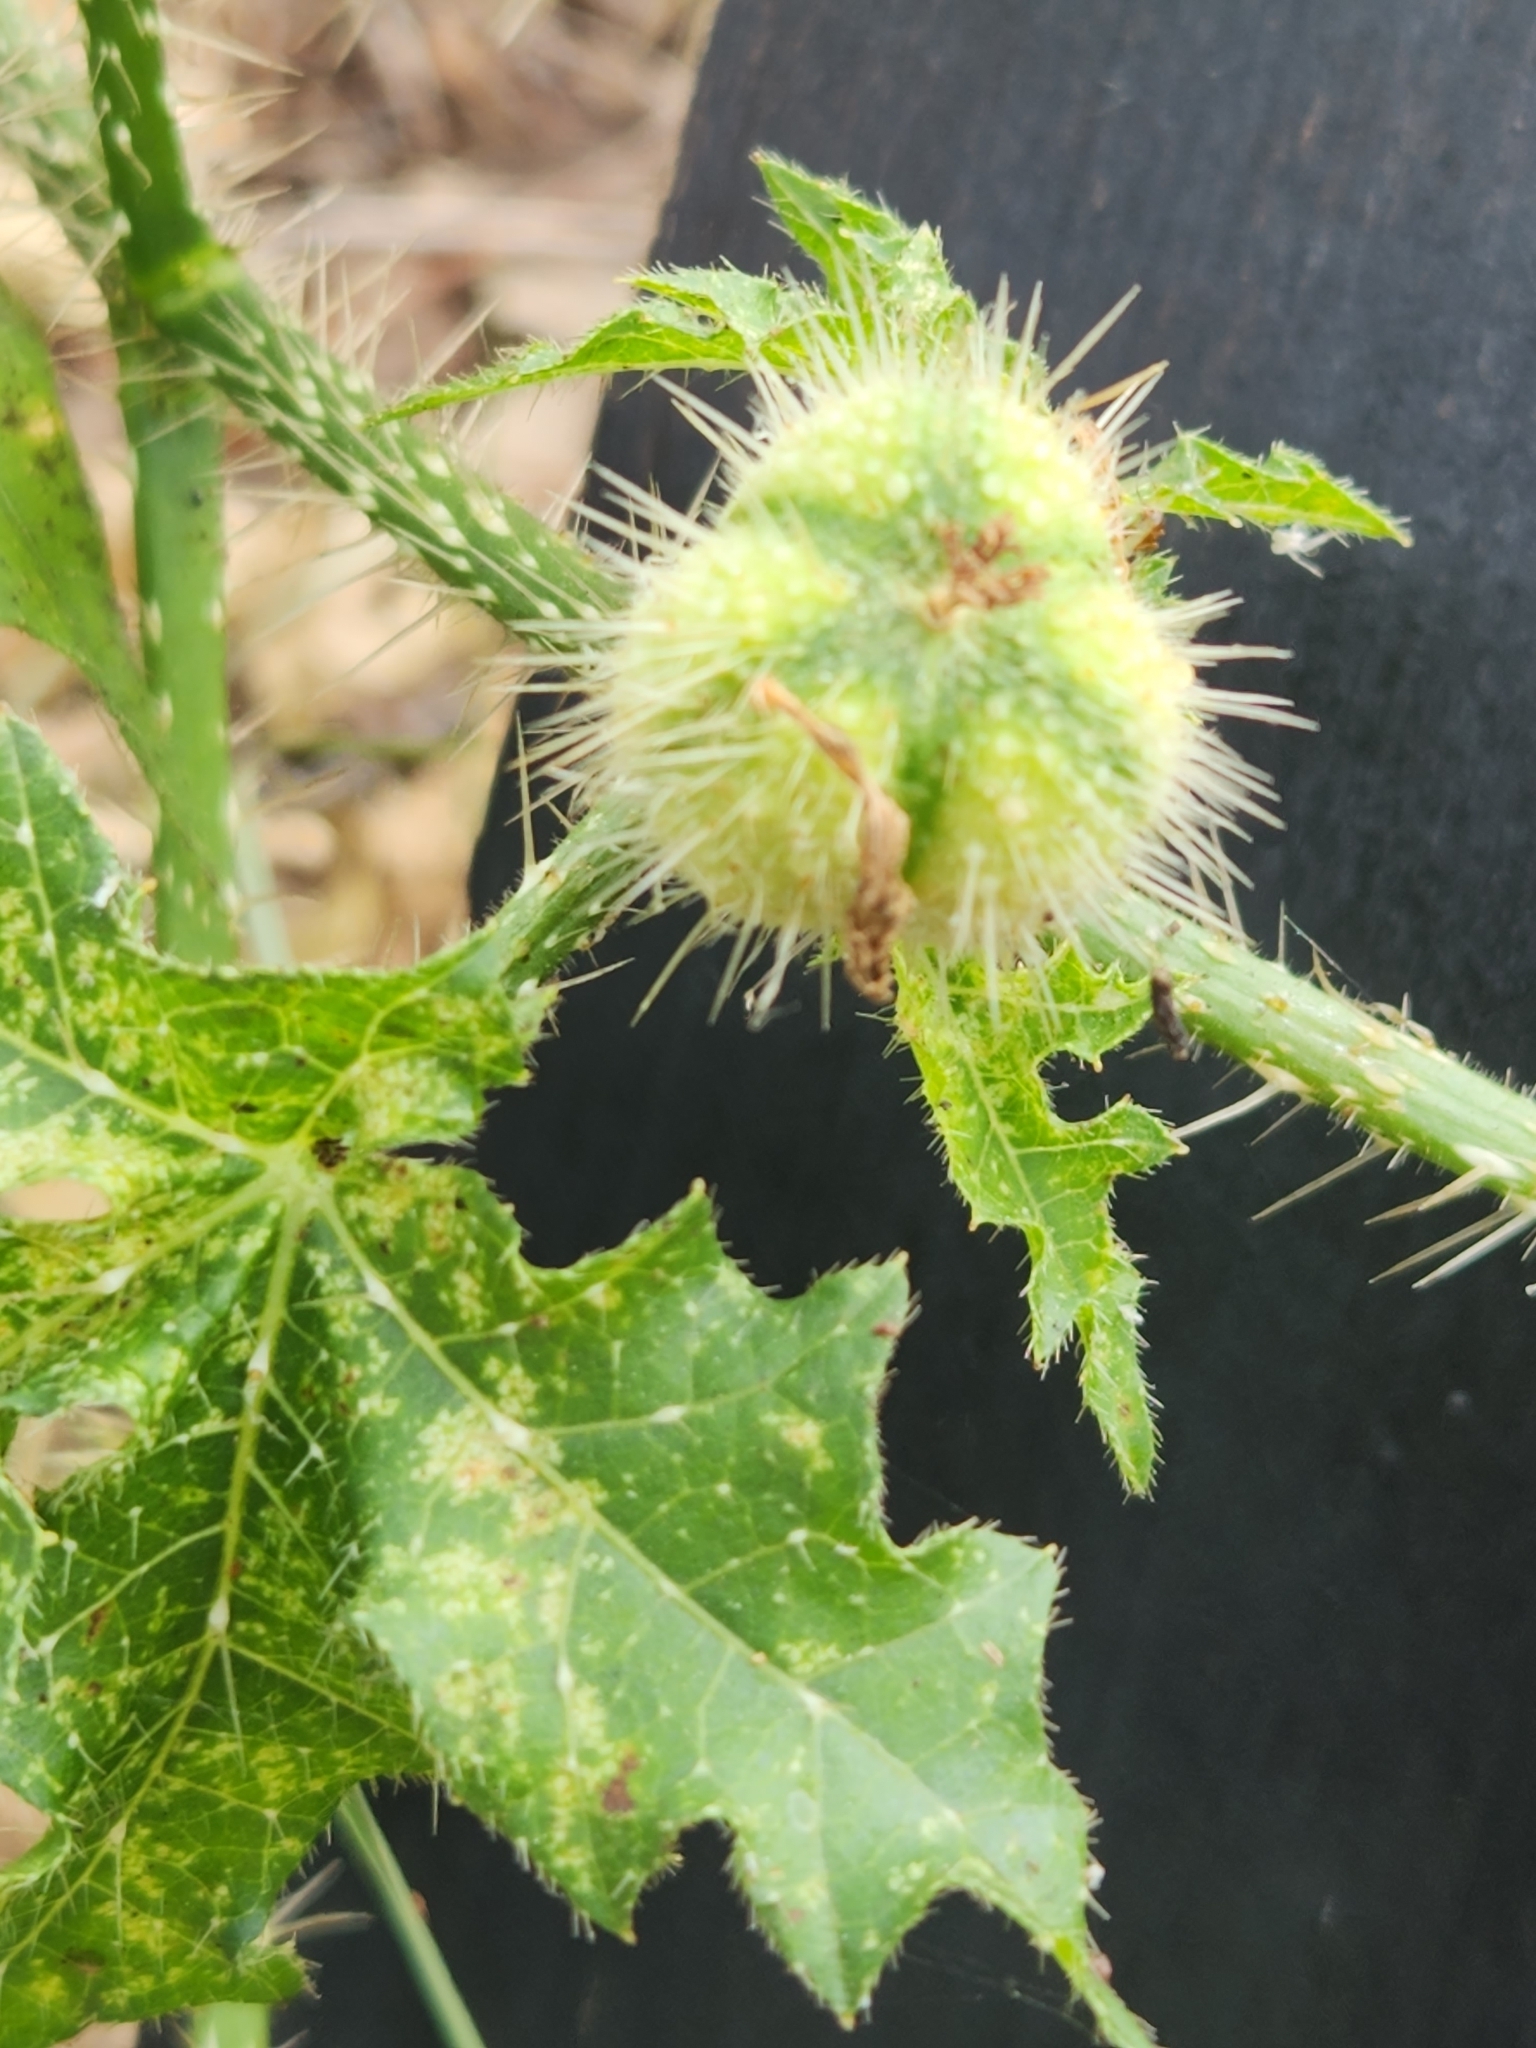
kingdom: Plantae
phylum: Tracheophyta
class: Magnoliopsida
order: Malpighiales
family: Euphorbiaceae
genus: Cnidoscolus
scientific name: Cnidoscolus texanus
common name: Texas bull-nettle
